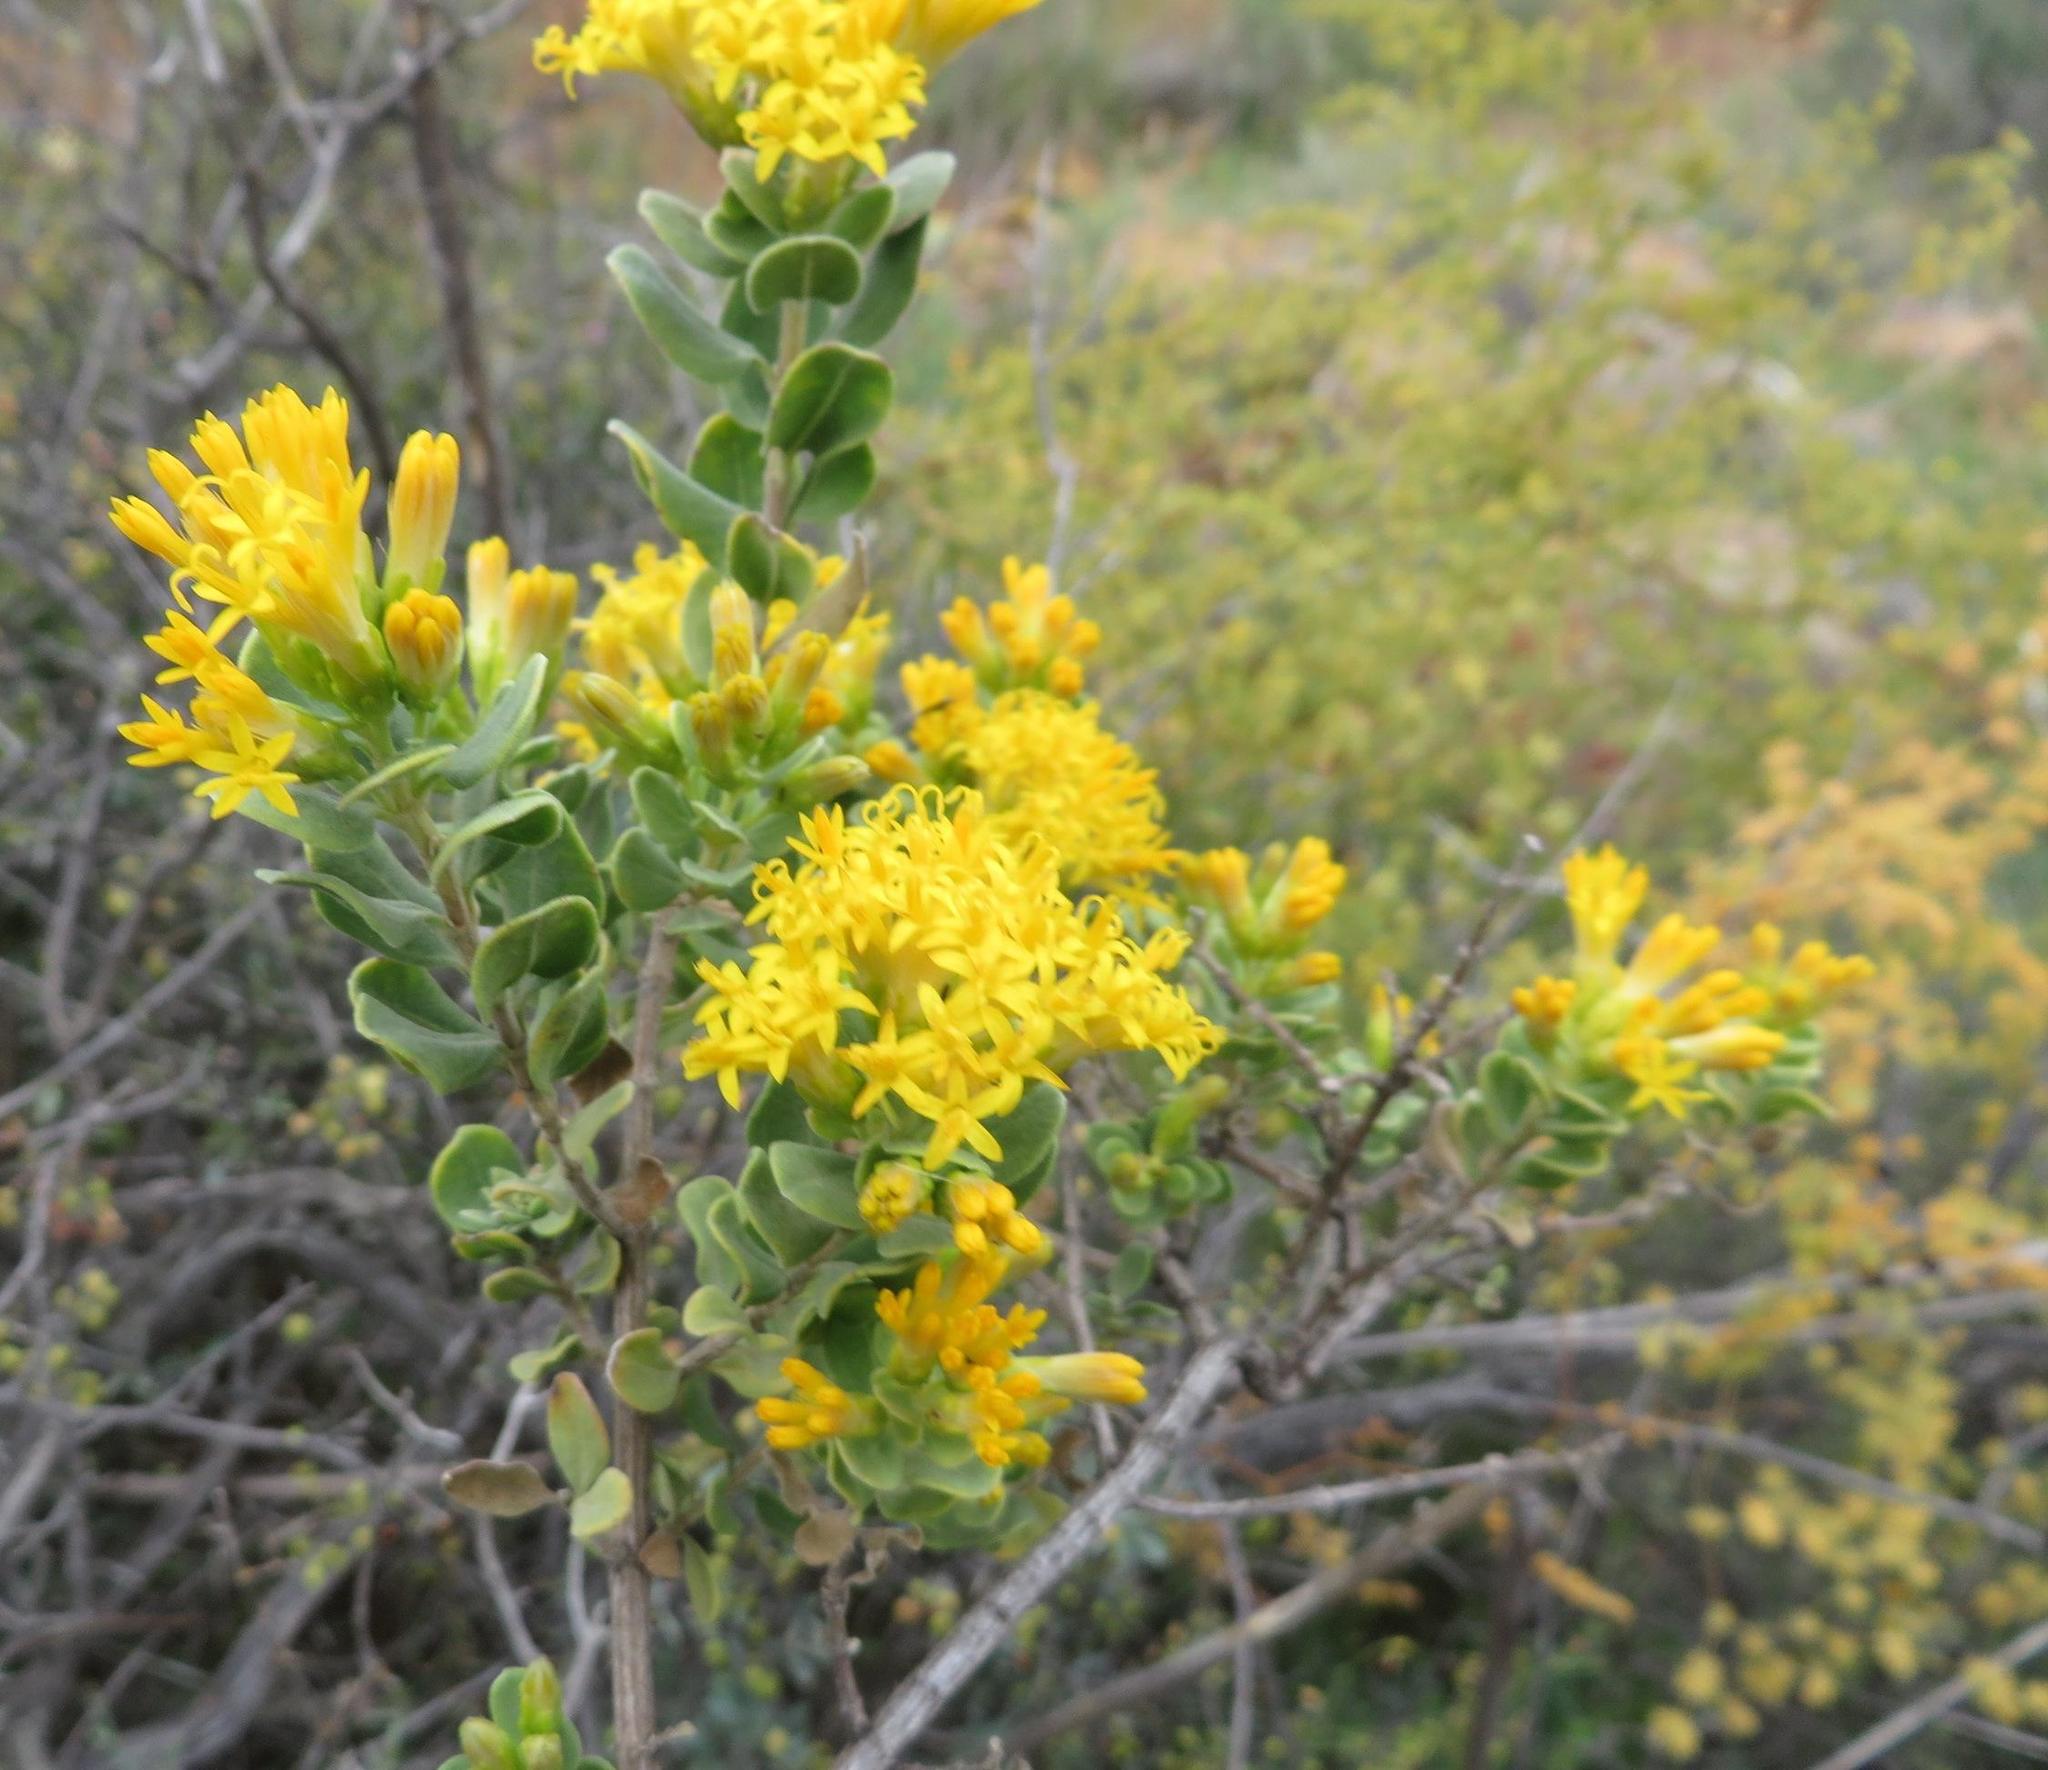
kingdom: Plantae
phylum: Tracheophyta
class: Magnoliopsida
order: Asterales
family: Asteraceae
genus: Pteronia
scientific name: Pteronia divaricata
